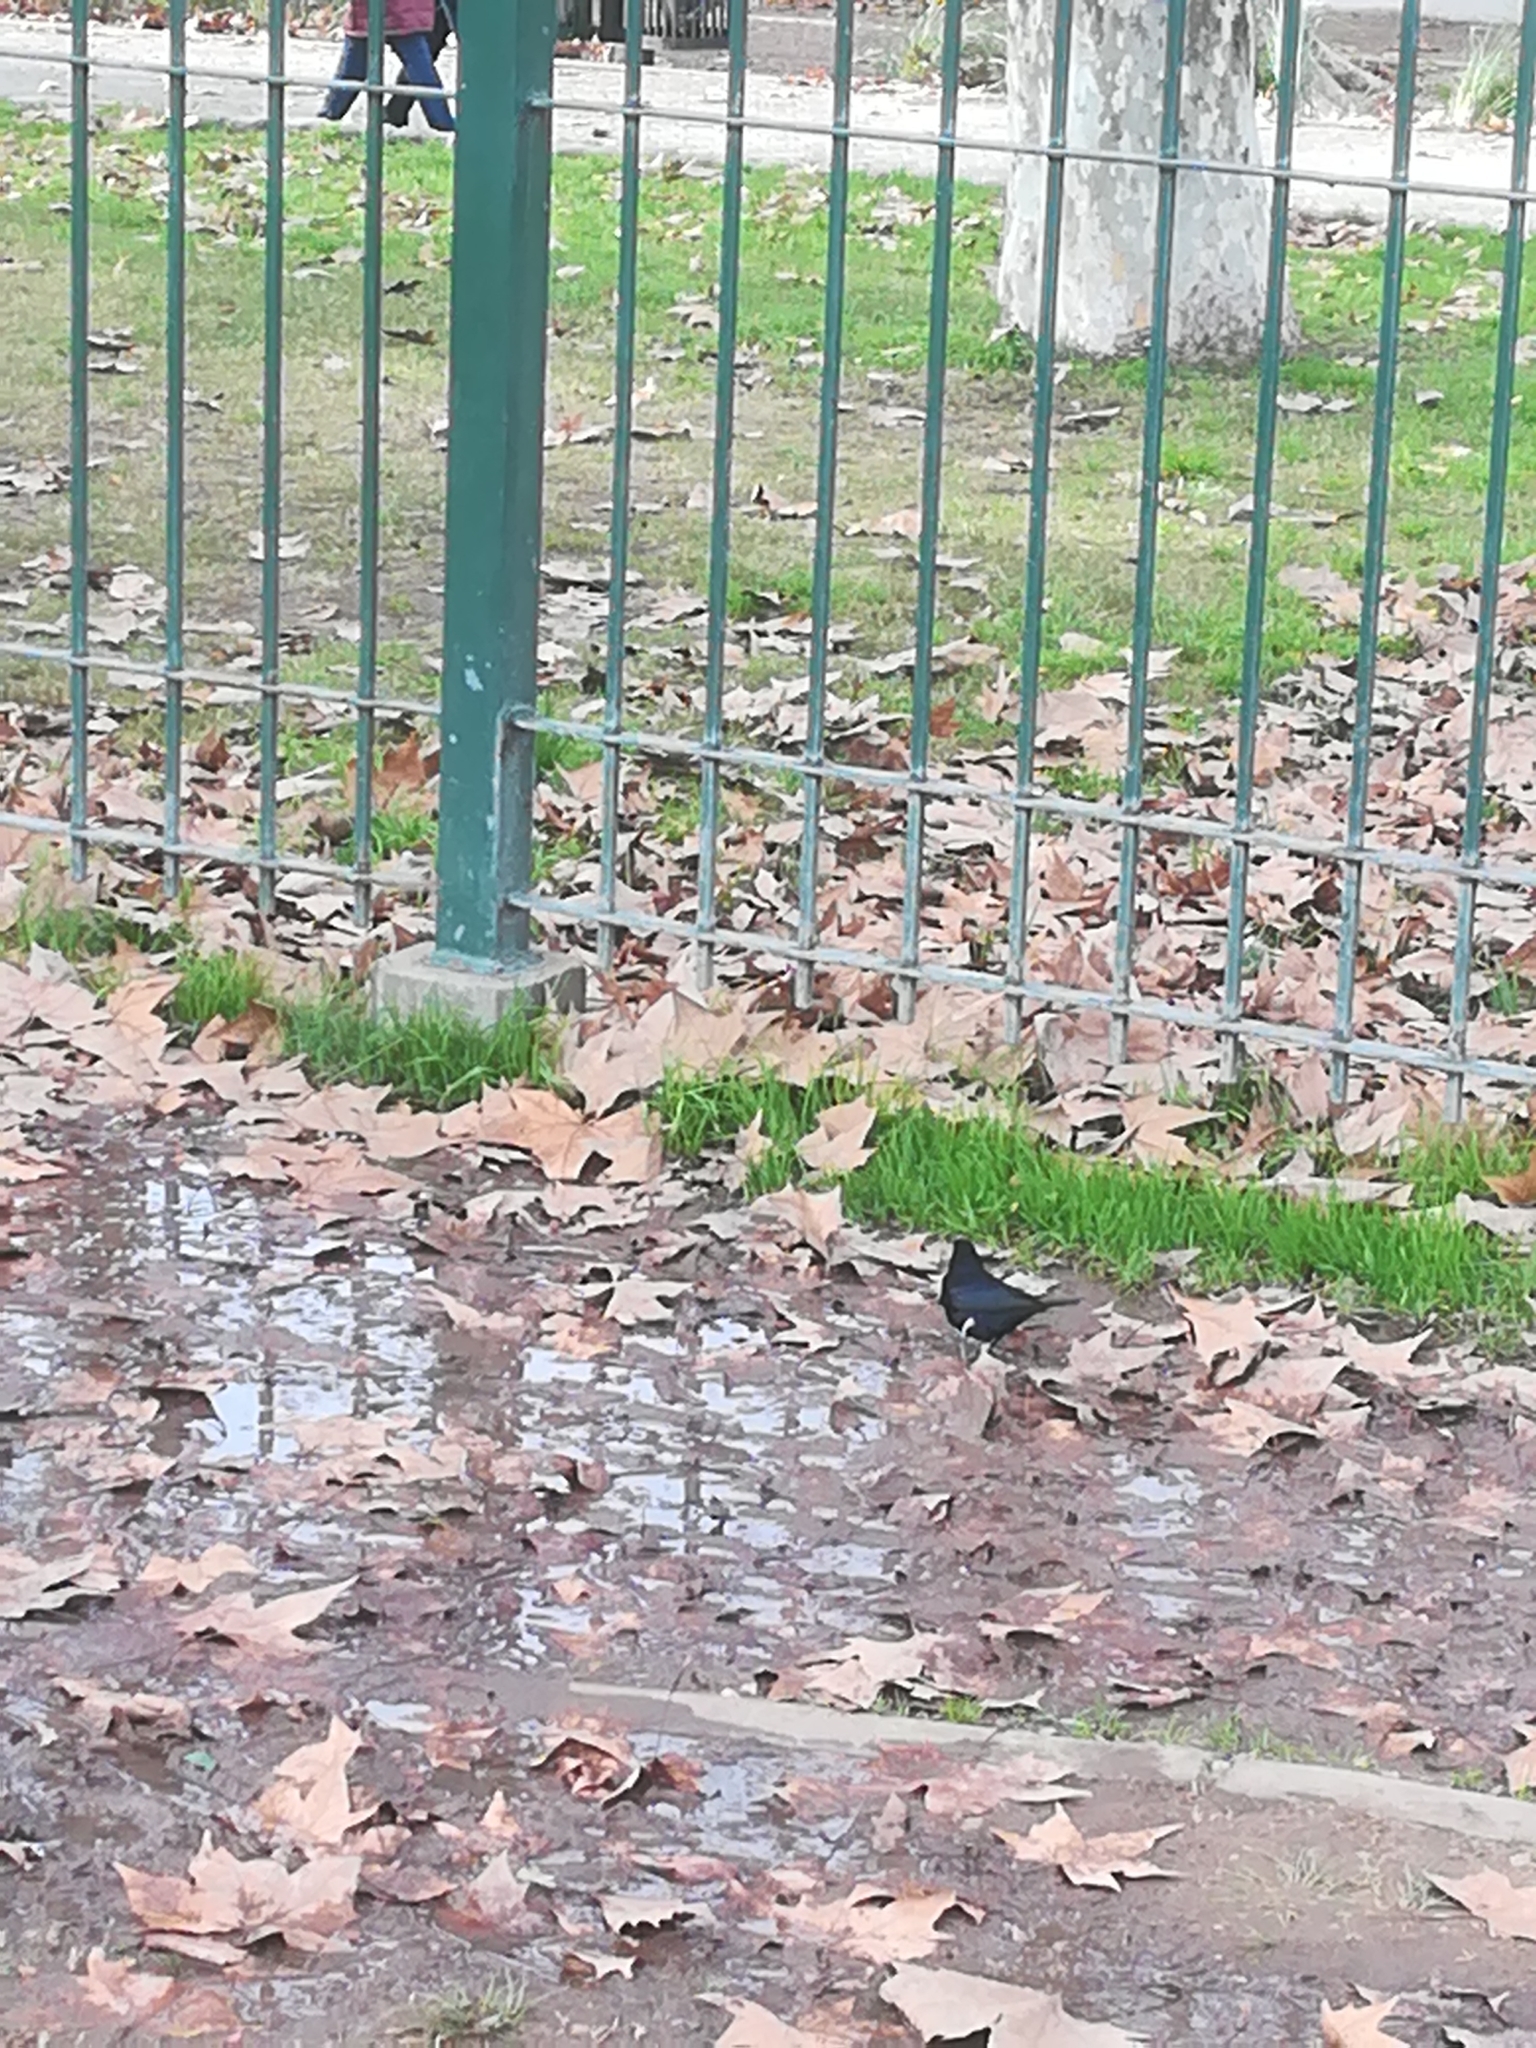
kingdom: Animalia
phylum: Chordata
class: Aves
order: Passeriformes
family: Icteridae
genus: Molothrus
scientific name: Molothrus bonariensis
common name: Shiny cowbird
